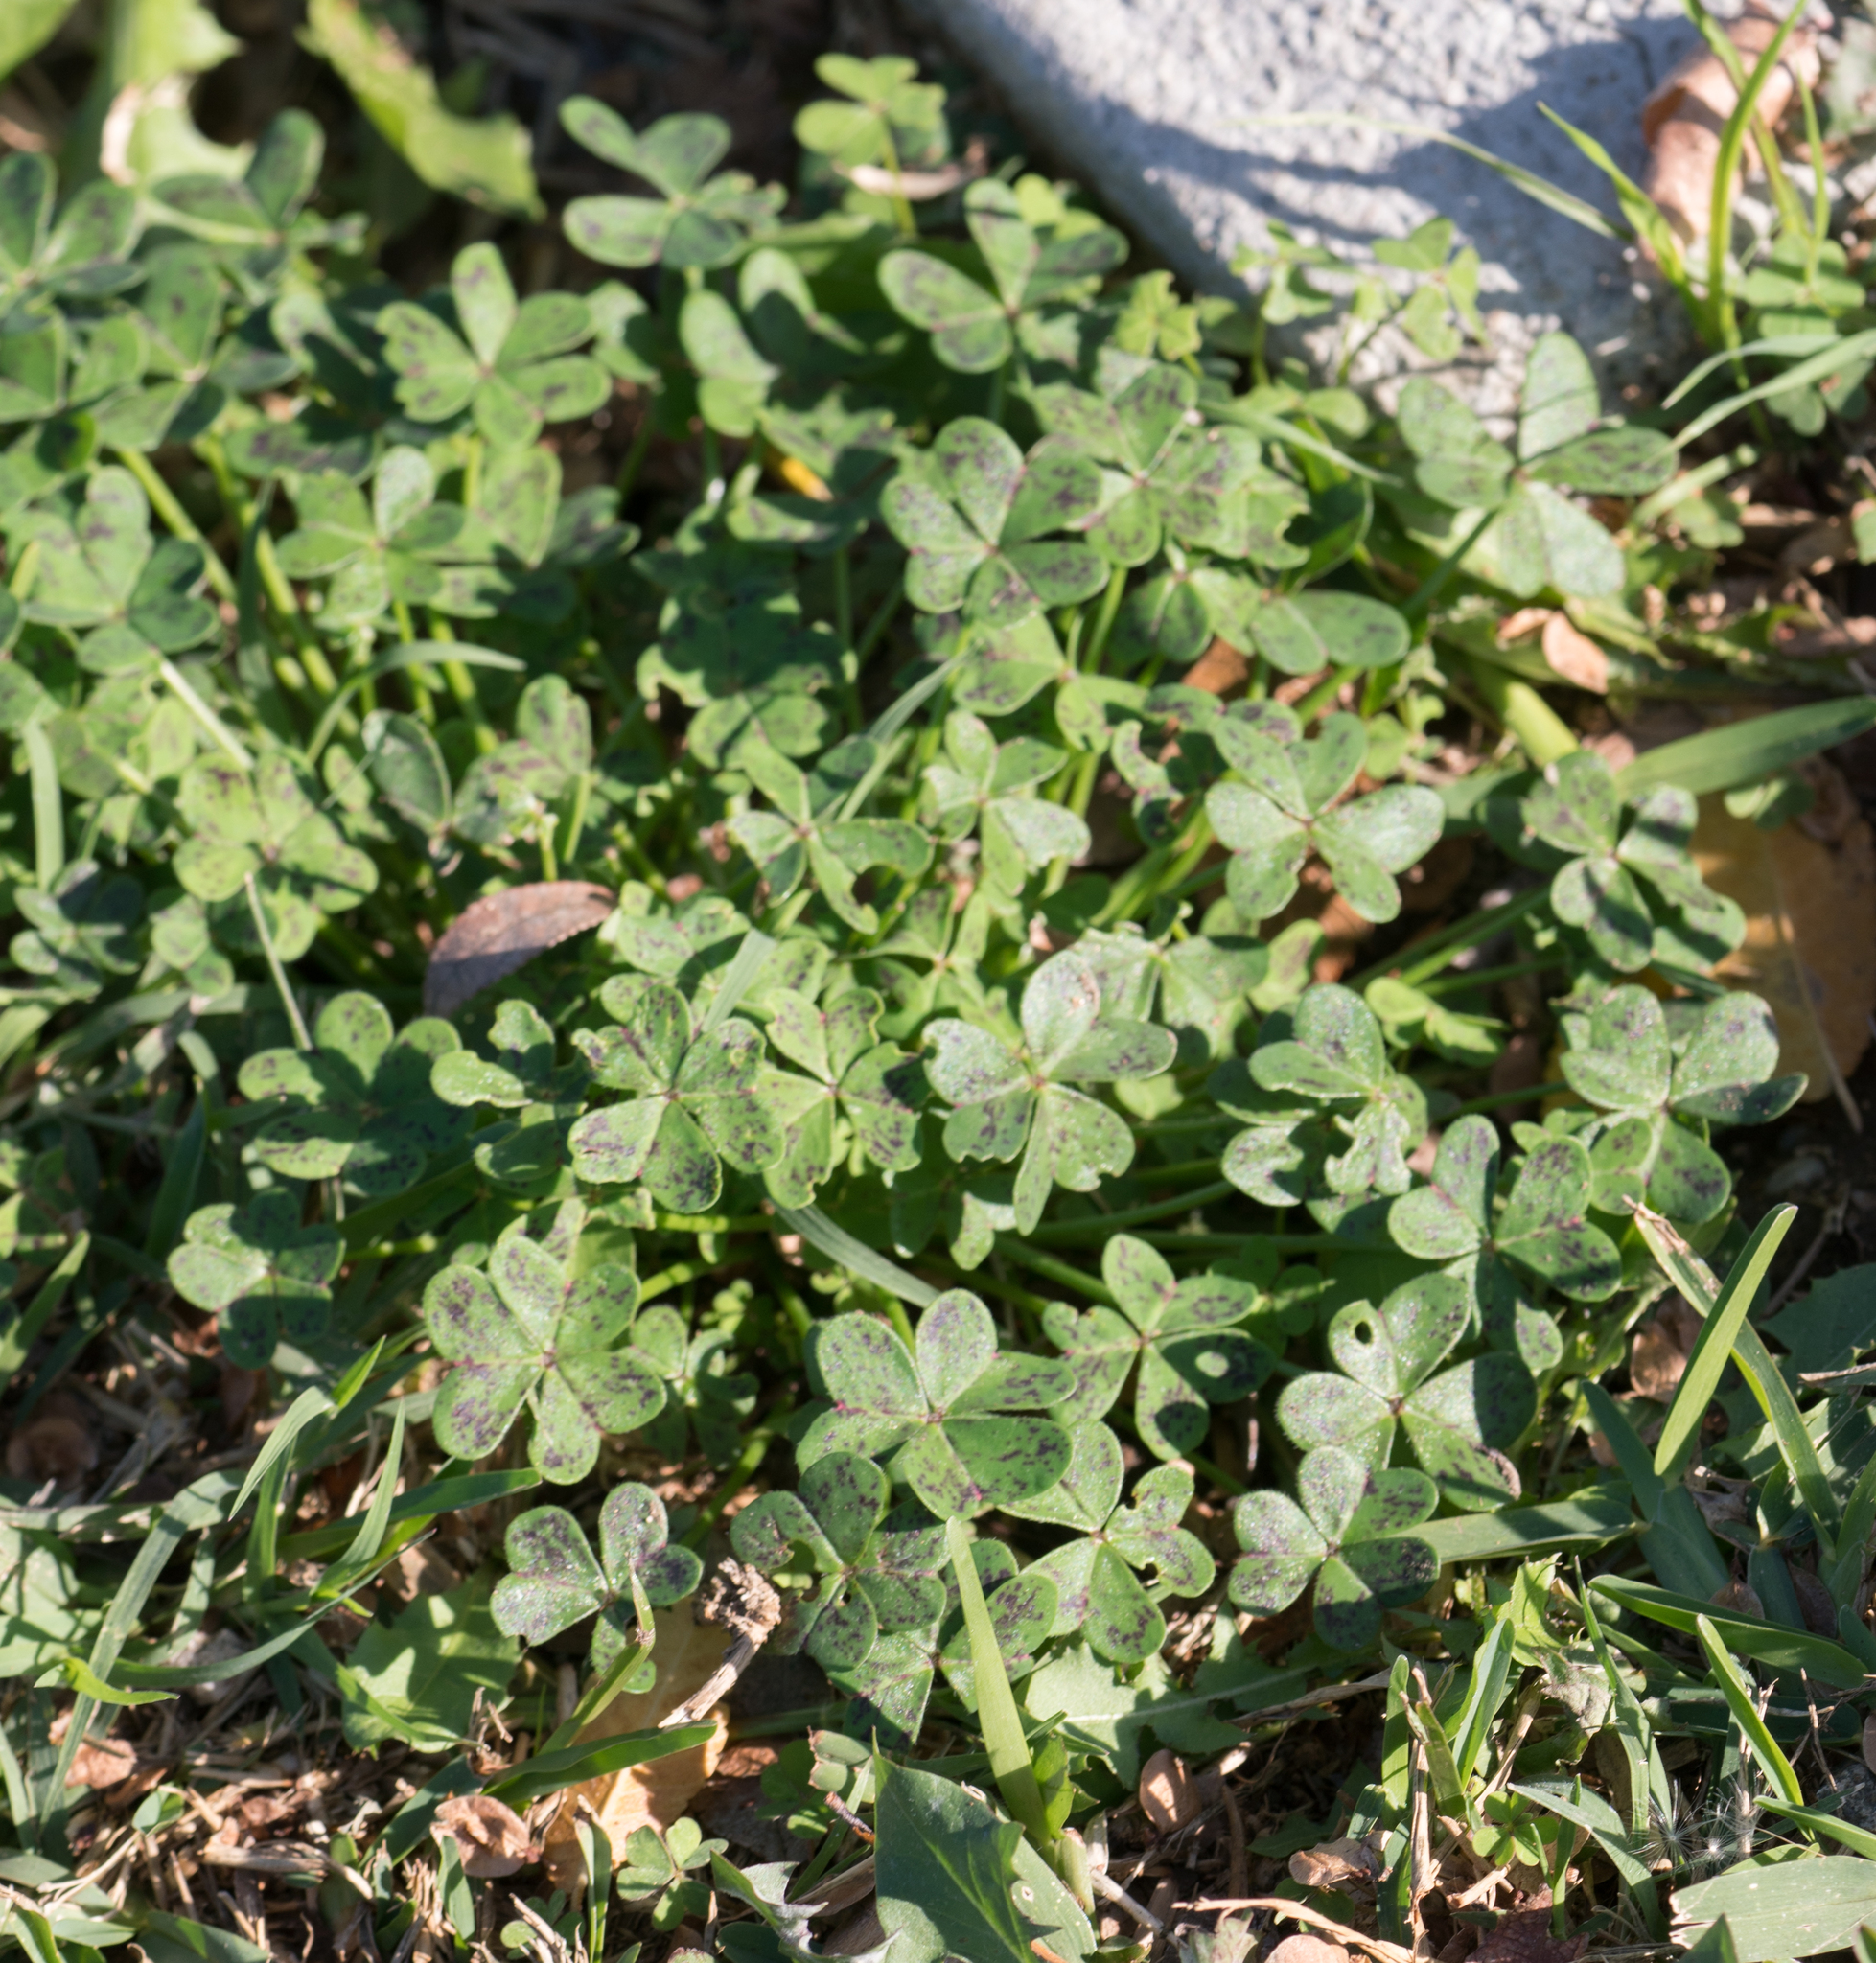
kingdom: Plantae
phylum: Tracheophyta
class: Magnoliopsida
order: Oxalidales
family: Oxalidaceae
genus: Oxalis
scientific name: Oxalis pes-caprae
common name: Bermuda-buttercup
